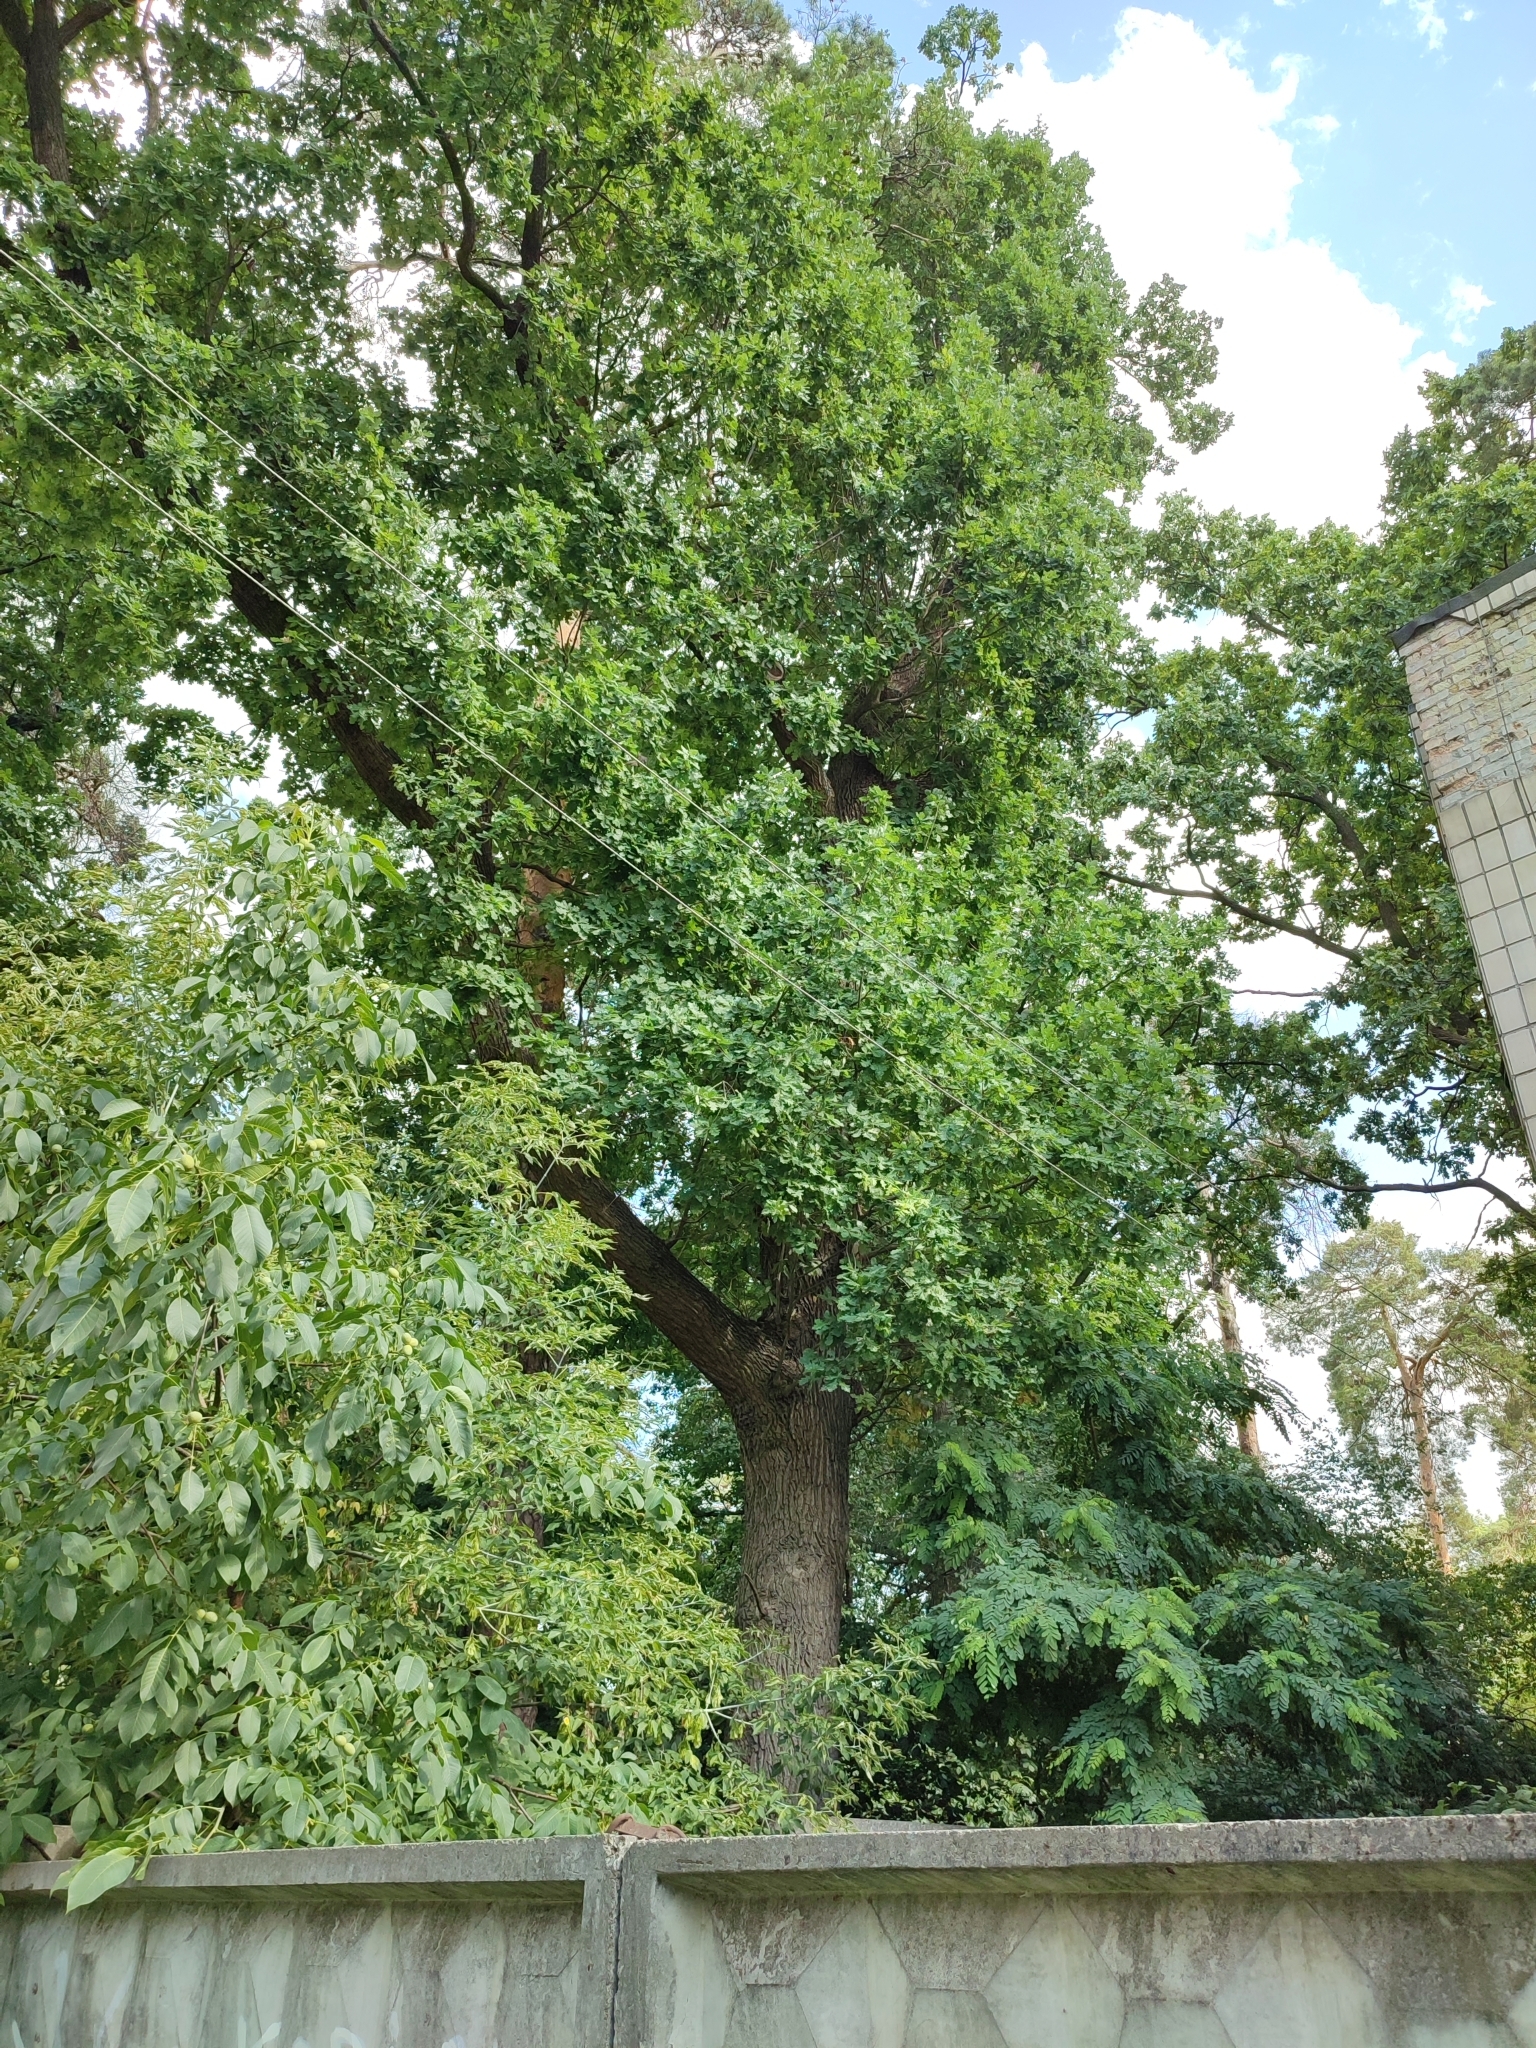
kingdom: Plantae
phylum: Tracheophyta
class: Magnoliopsida
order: Fagales
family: Fagaceae
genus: Quercus
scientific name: Quercus robur
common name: Pedunculate oak
